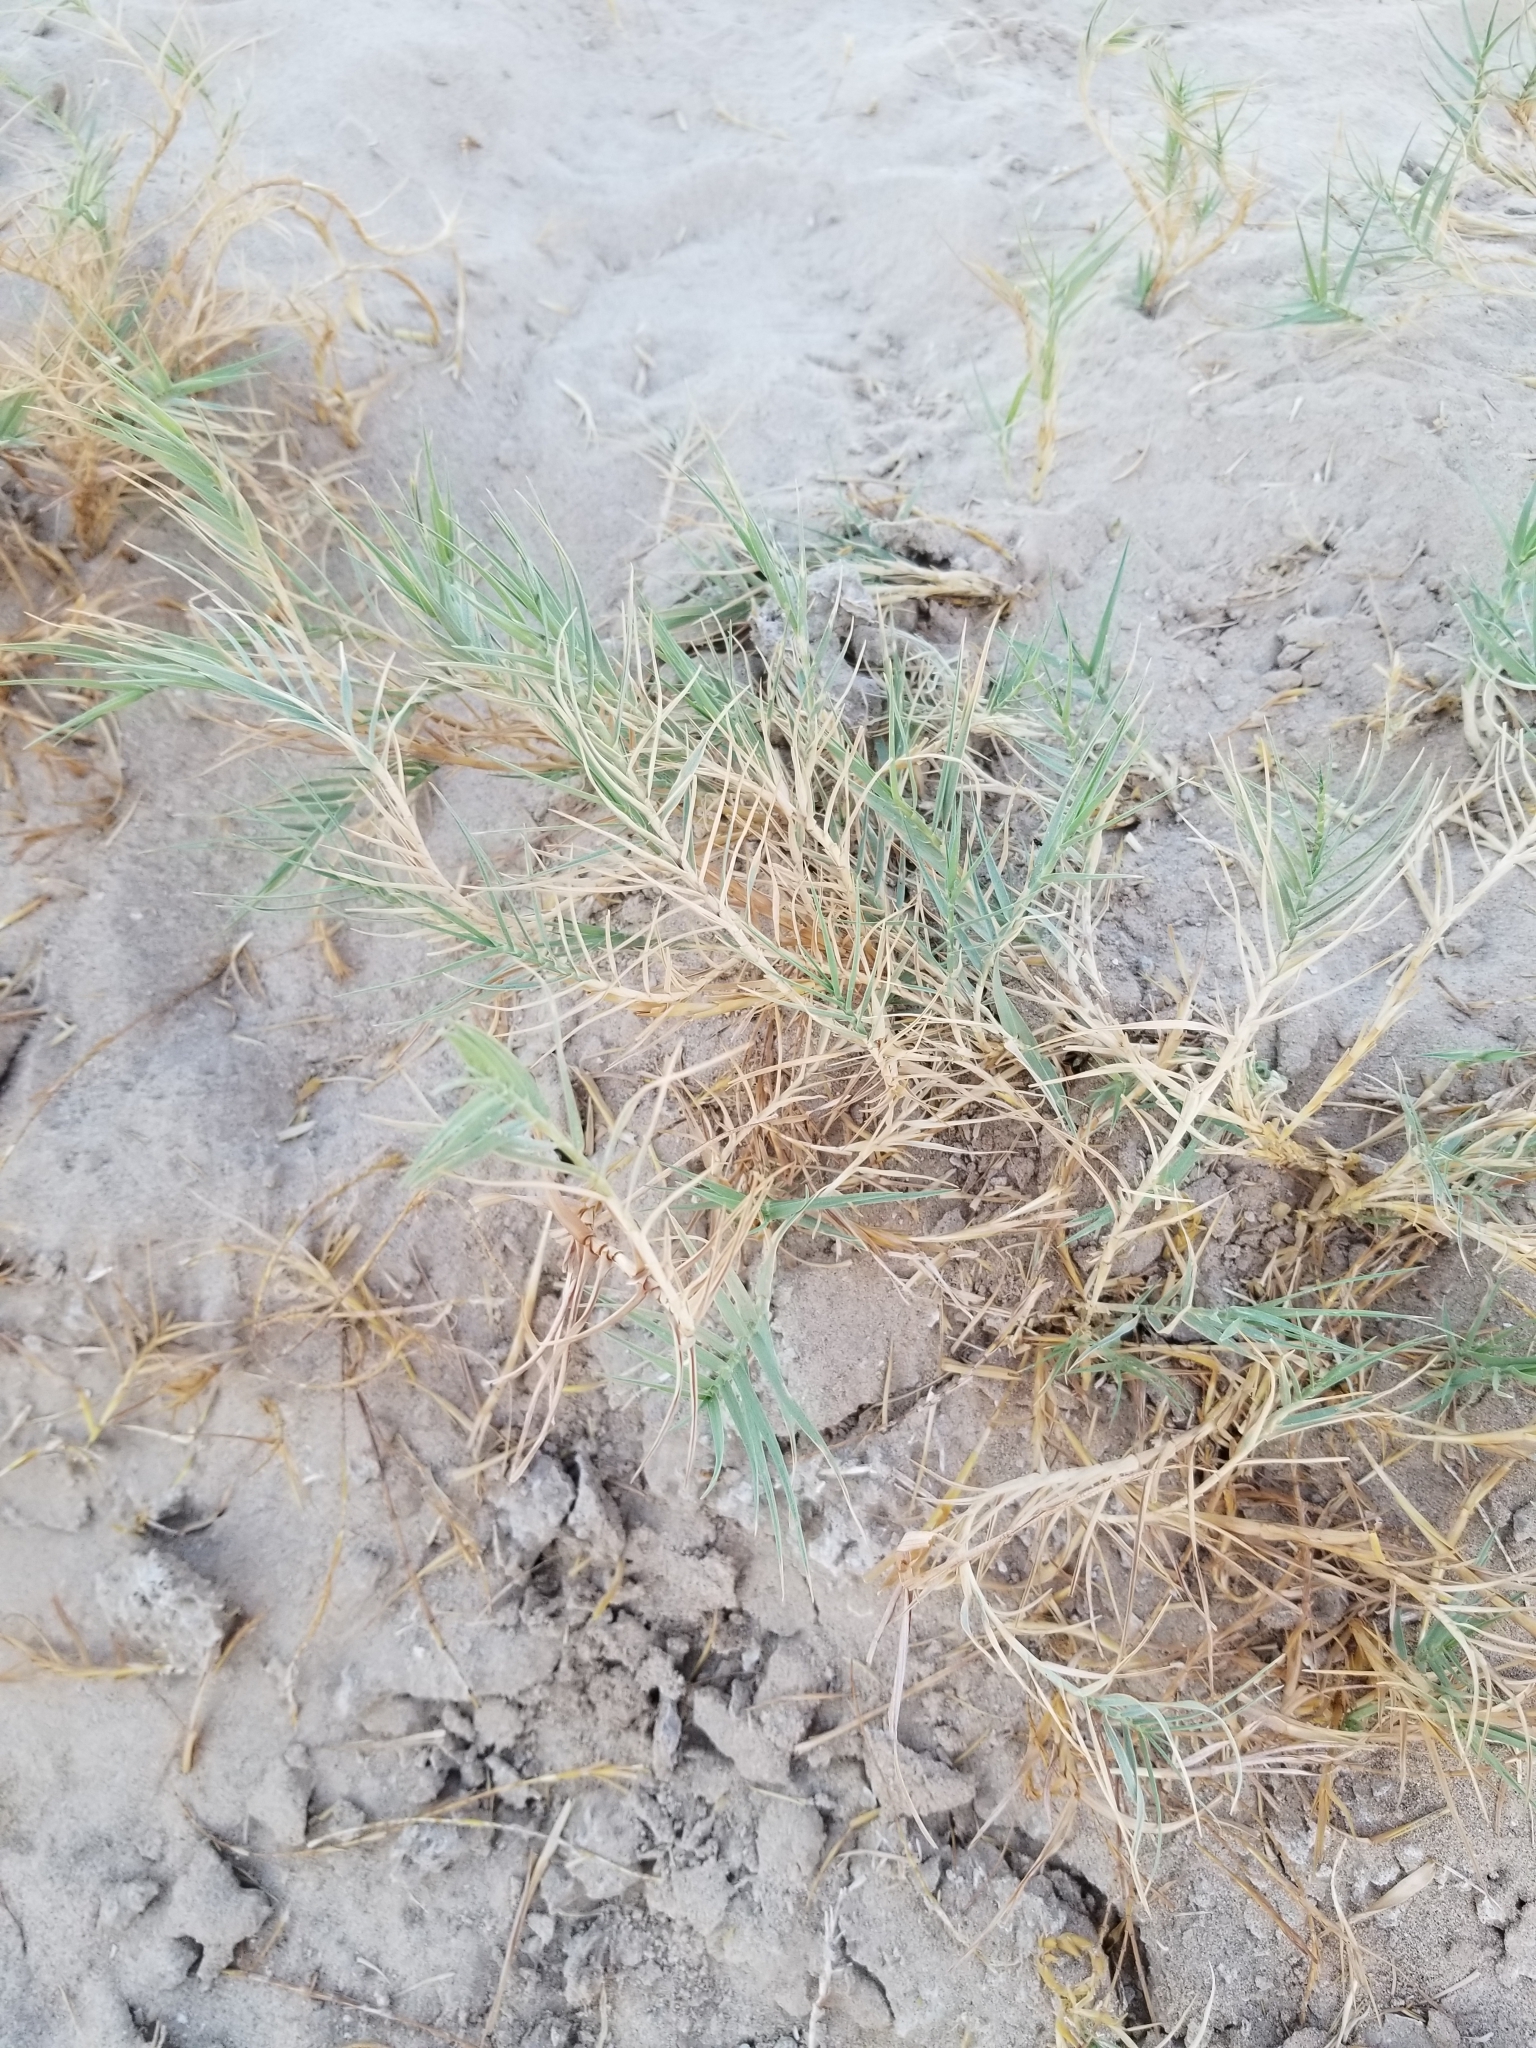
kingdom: Plantae
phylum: Tracheophyta
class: Liliopsida
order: Poales
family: Poaceae
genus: Distichlis
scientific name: Distichlis spicata
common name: Saltgrass
